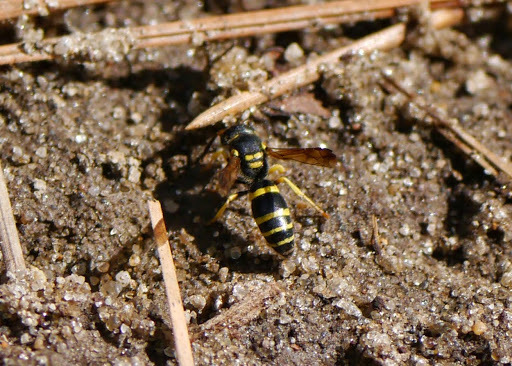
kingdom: Animalia
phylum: Arthropoda
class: Insecta
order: Hymenoptera
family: Vespidae
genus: Ancistrocerus
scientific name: Ancistrocerus adiabatus
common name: Bramble mason wasp
